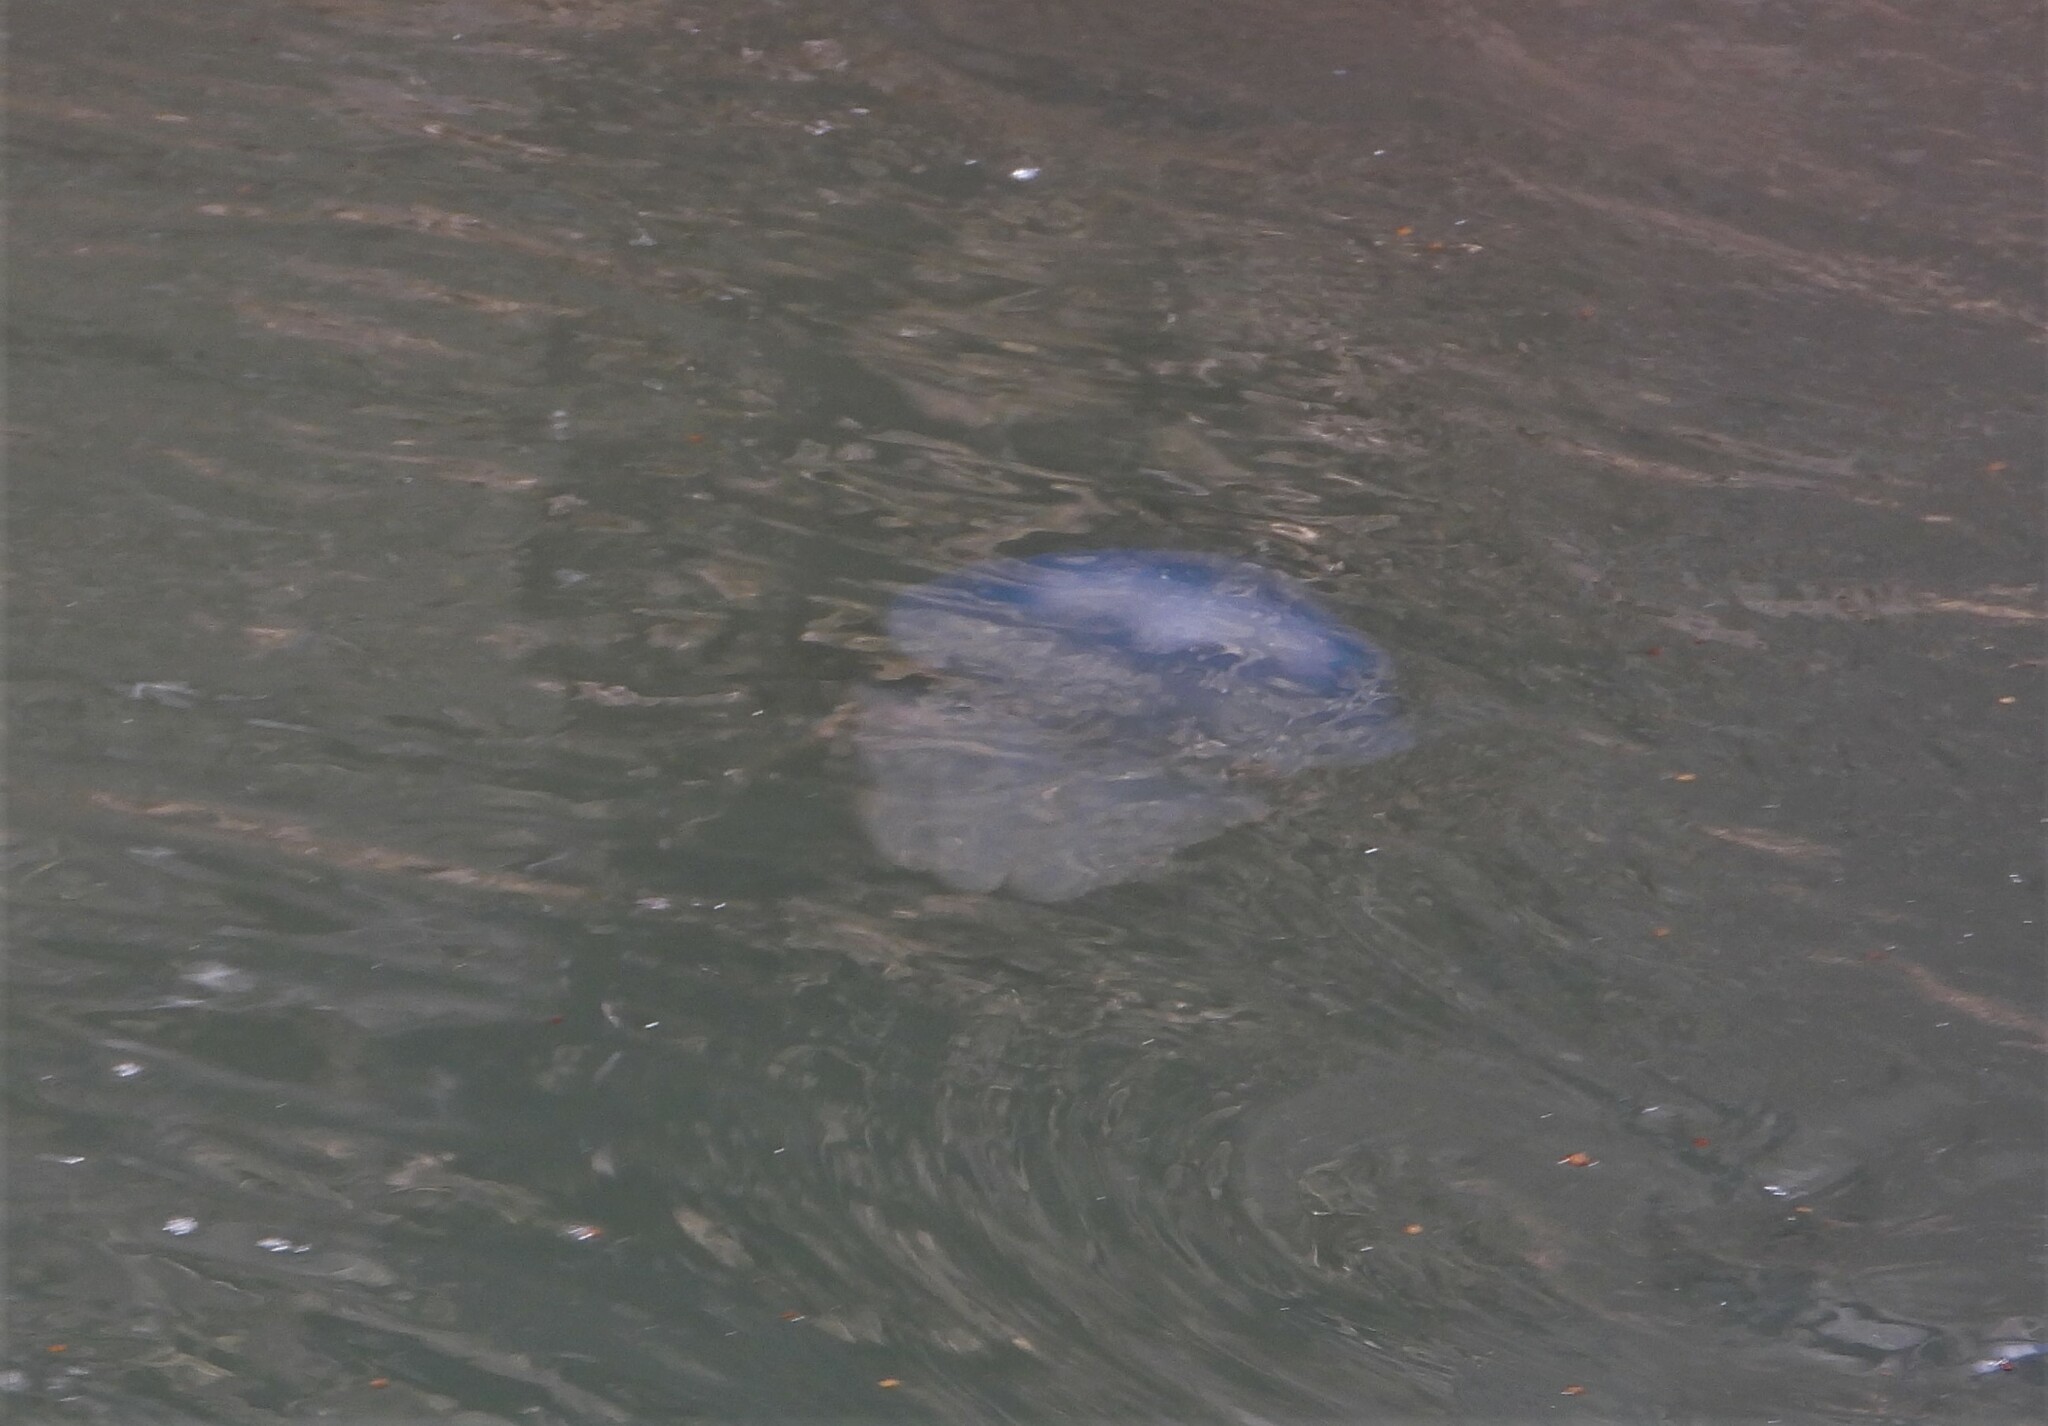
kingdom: Animalia
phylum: Cnidaria
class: Scyphozoa
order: Rhizostomeae
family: Rhizostomatidae
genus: Rhizostoma
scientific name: Rhizostoma octopus
